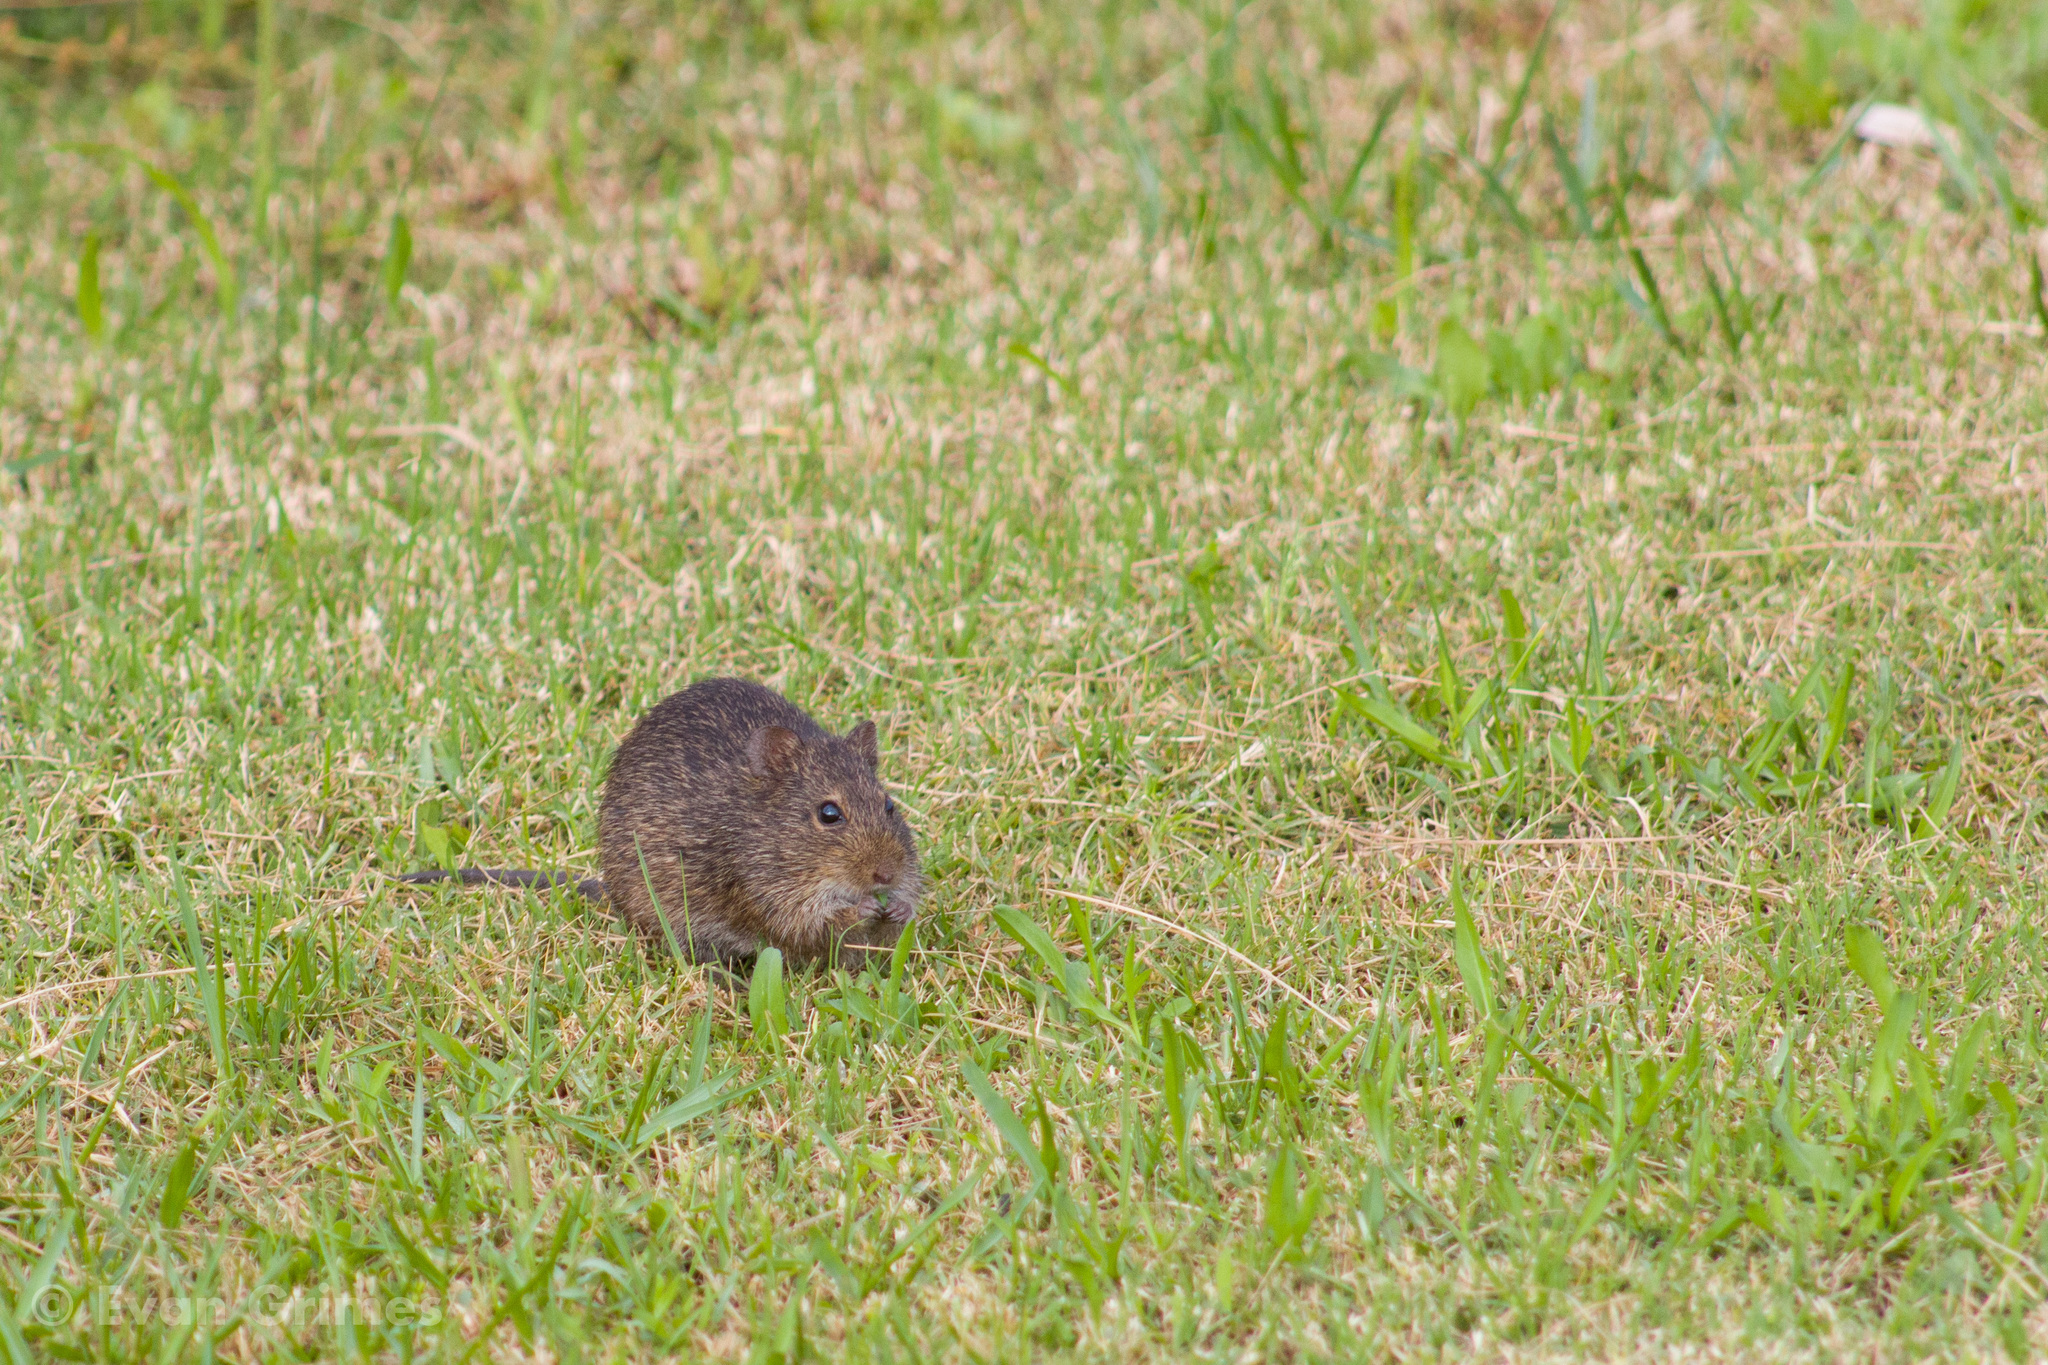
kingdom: Animalia
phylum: Chordata
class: Mammalia
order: Rodentia
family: Cricetidae
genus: Sigmodon
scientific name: Sigmodon hispidus
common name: Hispid cotton rat
